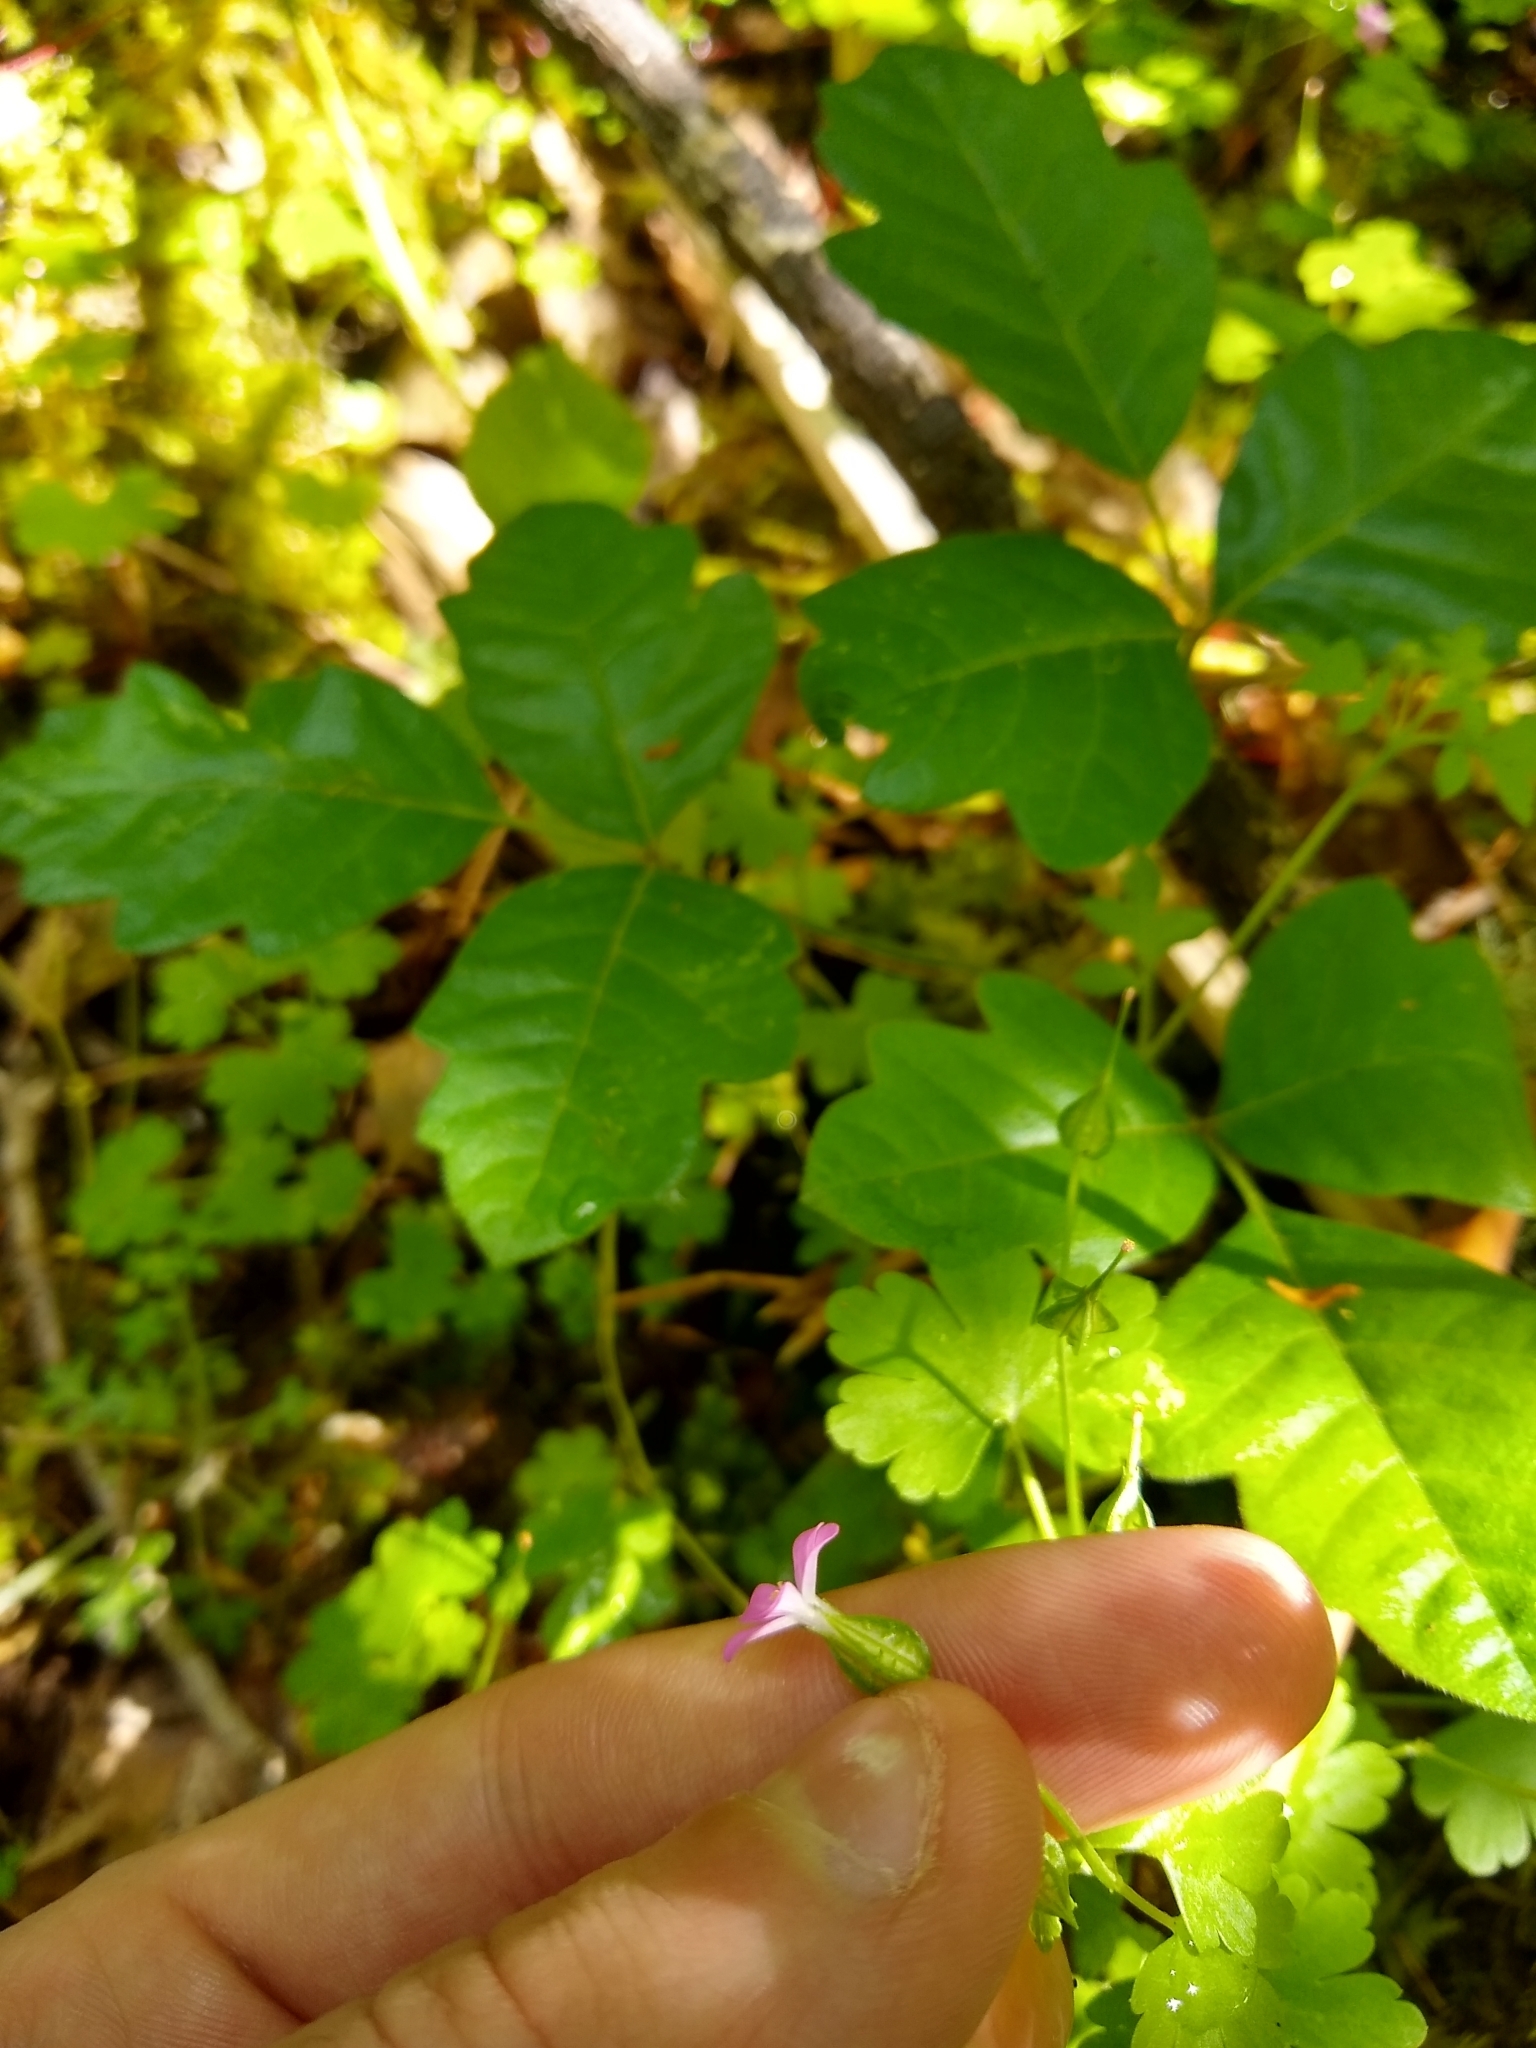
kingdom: Plantae
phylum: Tracheophyta
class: Magnoliopsida
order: Geraniales
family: Geraniaceae
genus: Geranium
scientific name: Geranium lucidum
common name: Shining crane's-bill
